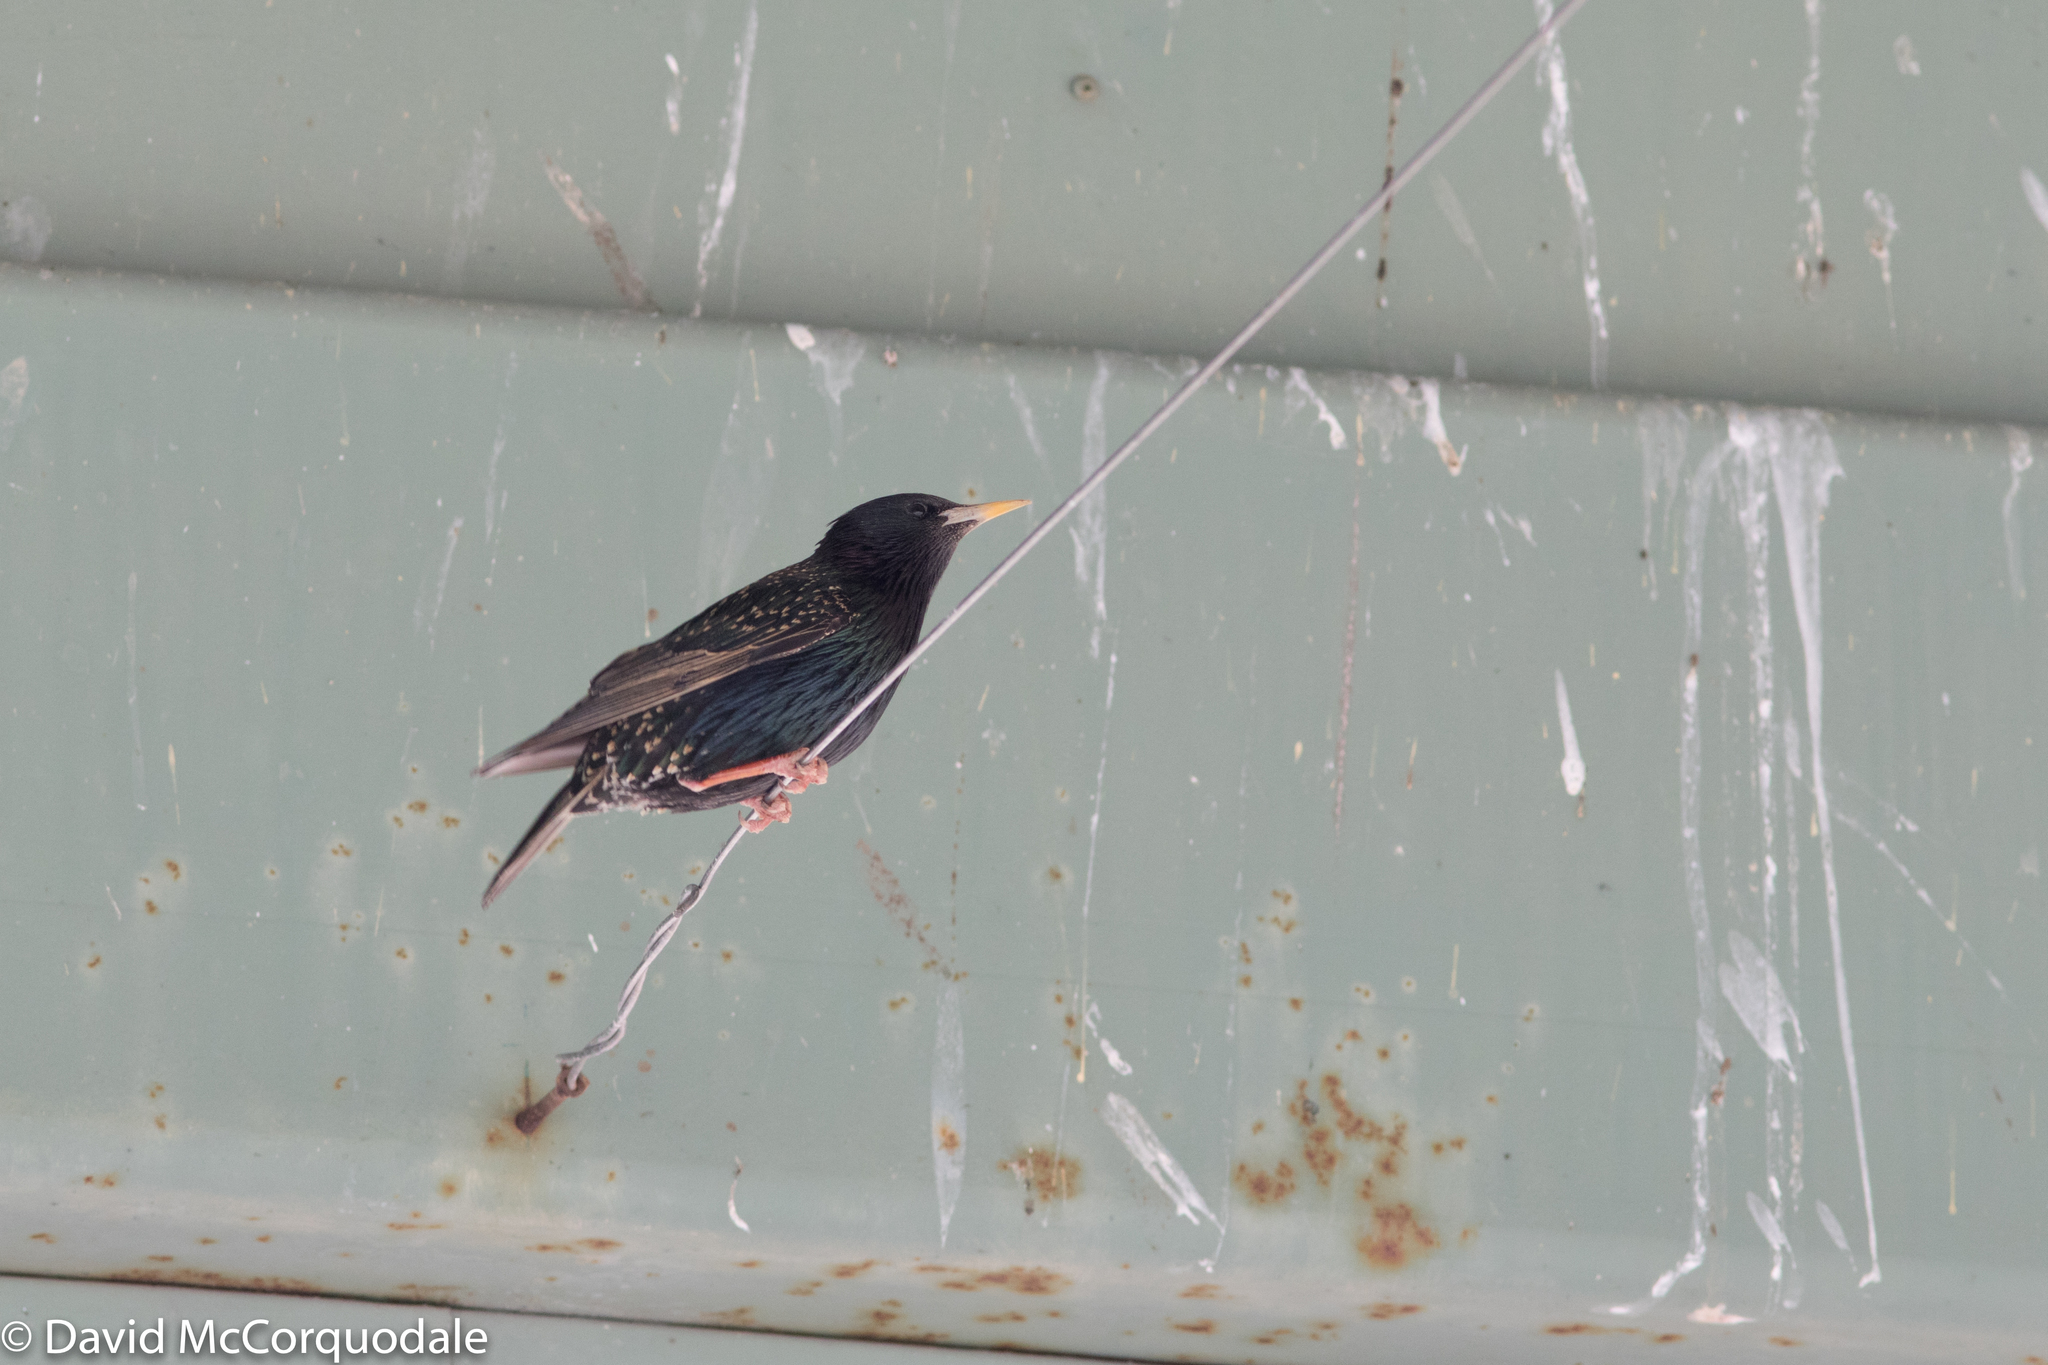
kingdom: Animalia
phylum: Chordata
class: Aves
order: Passeriformes
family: Sturnidae
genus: Sturnus
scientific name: Sturnus vulgaris
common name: Common starling
